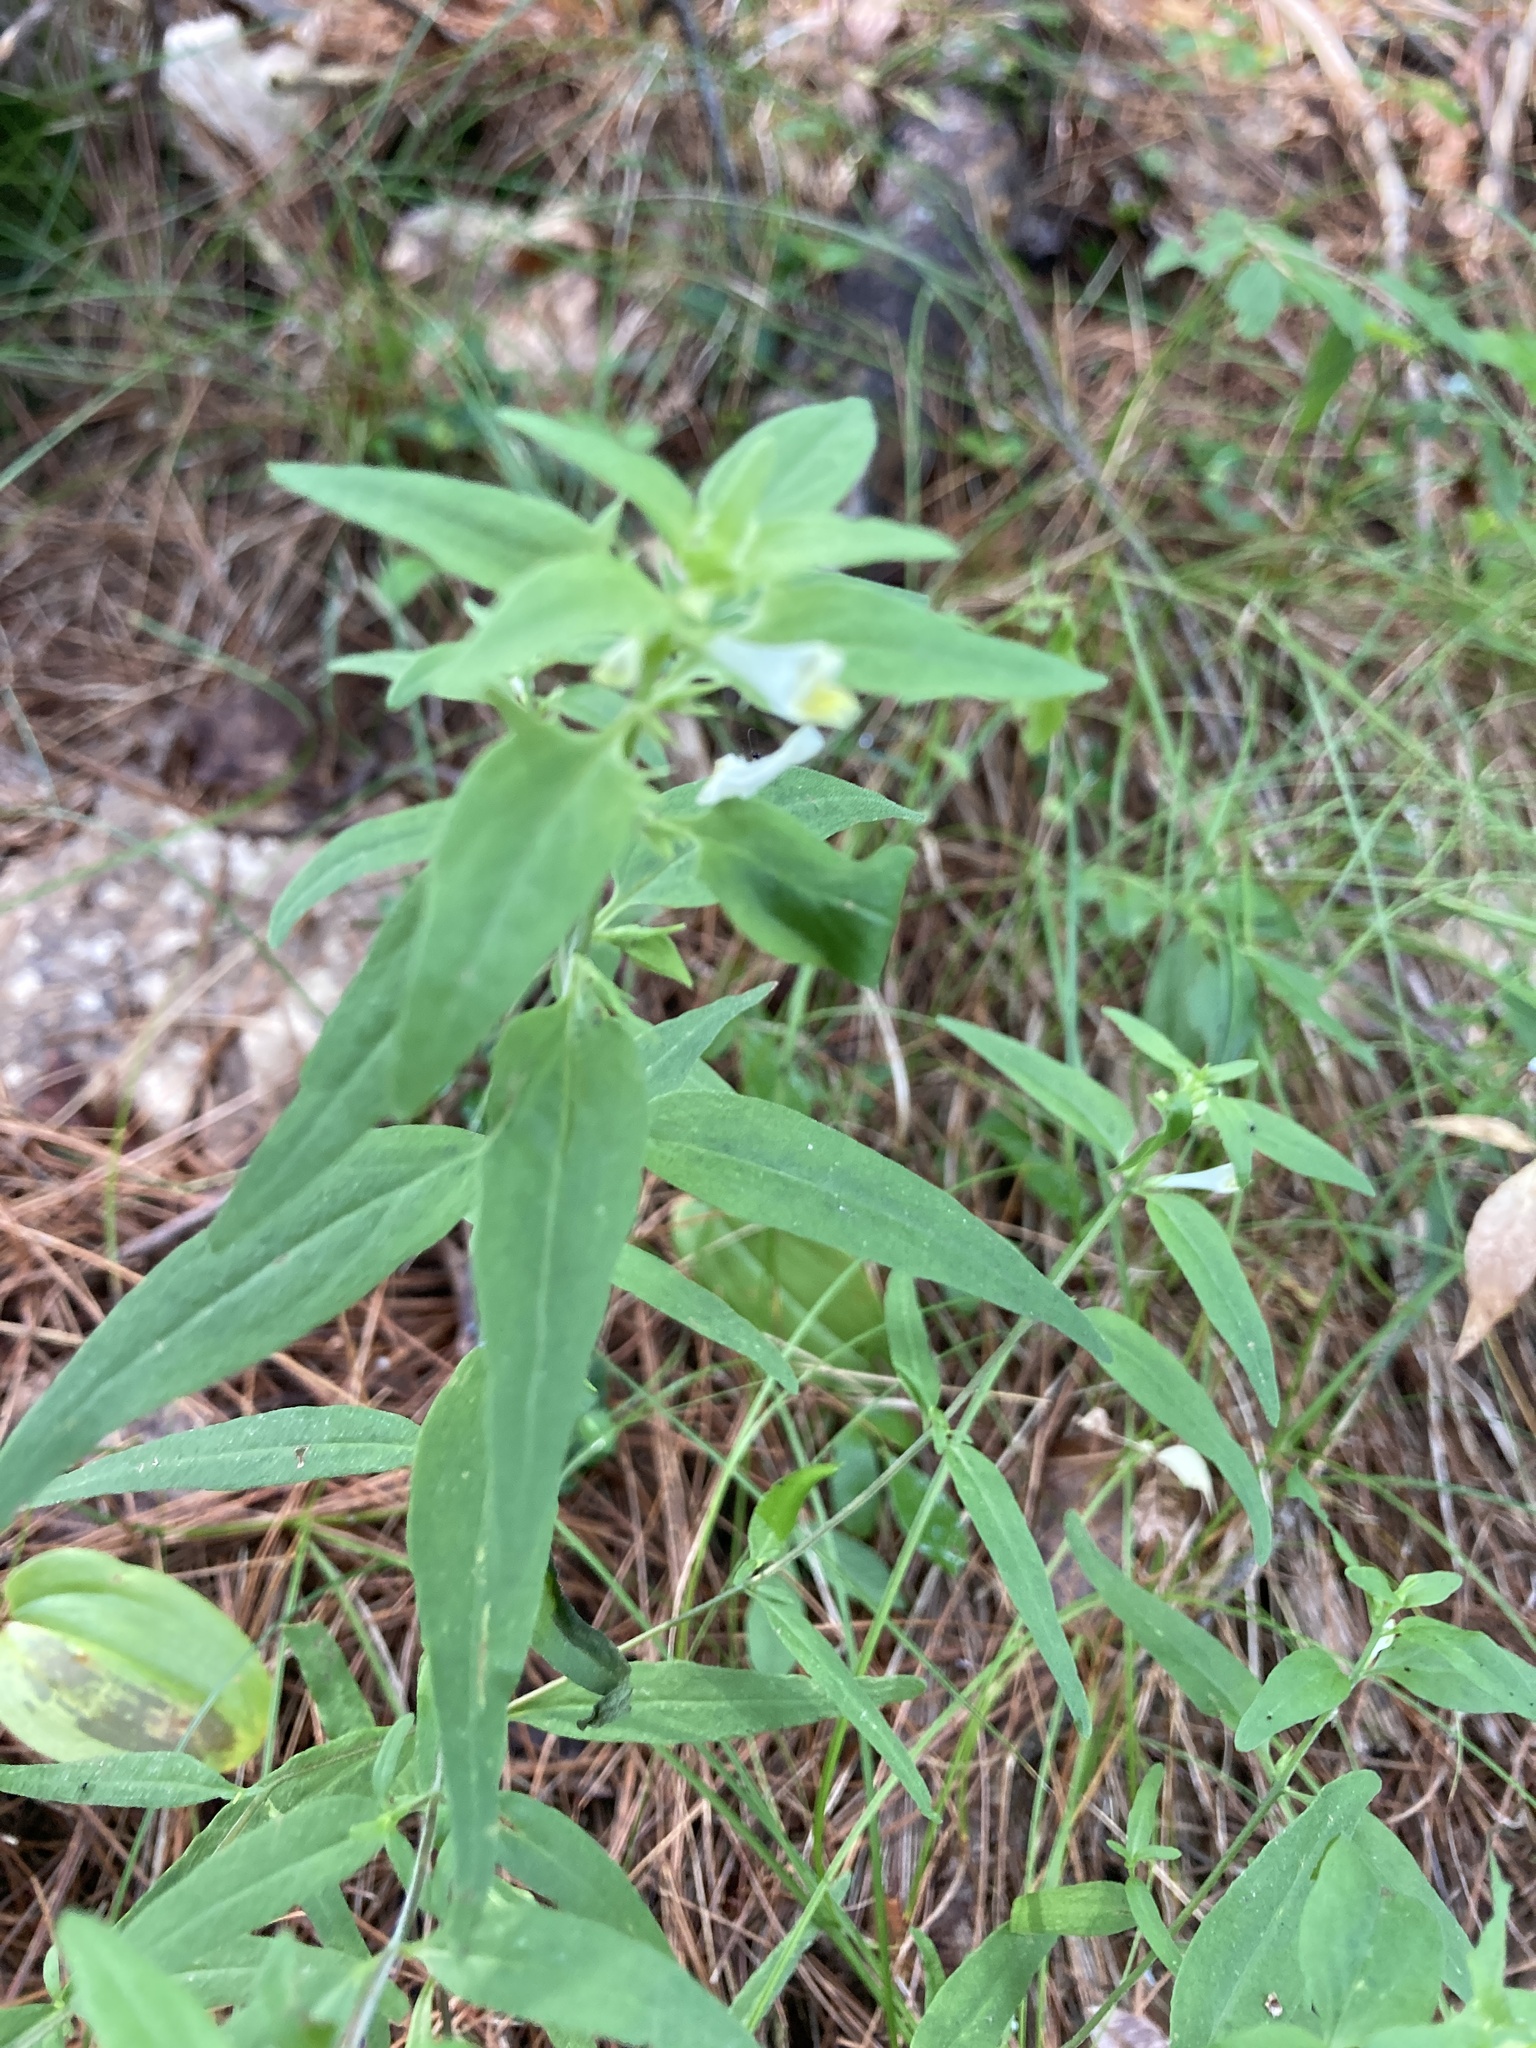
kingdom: Plantae
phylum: Tracheophyta
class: Magnoliopsida
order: Lamiales
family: Orobanchaceae
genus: Melampyrum
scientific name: Melampyrum lineare
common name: American cow-wheat
